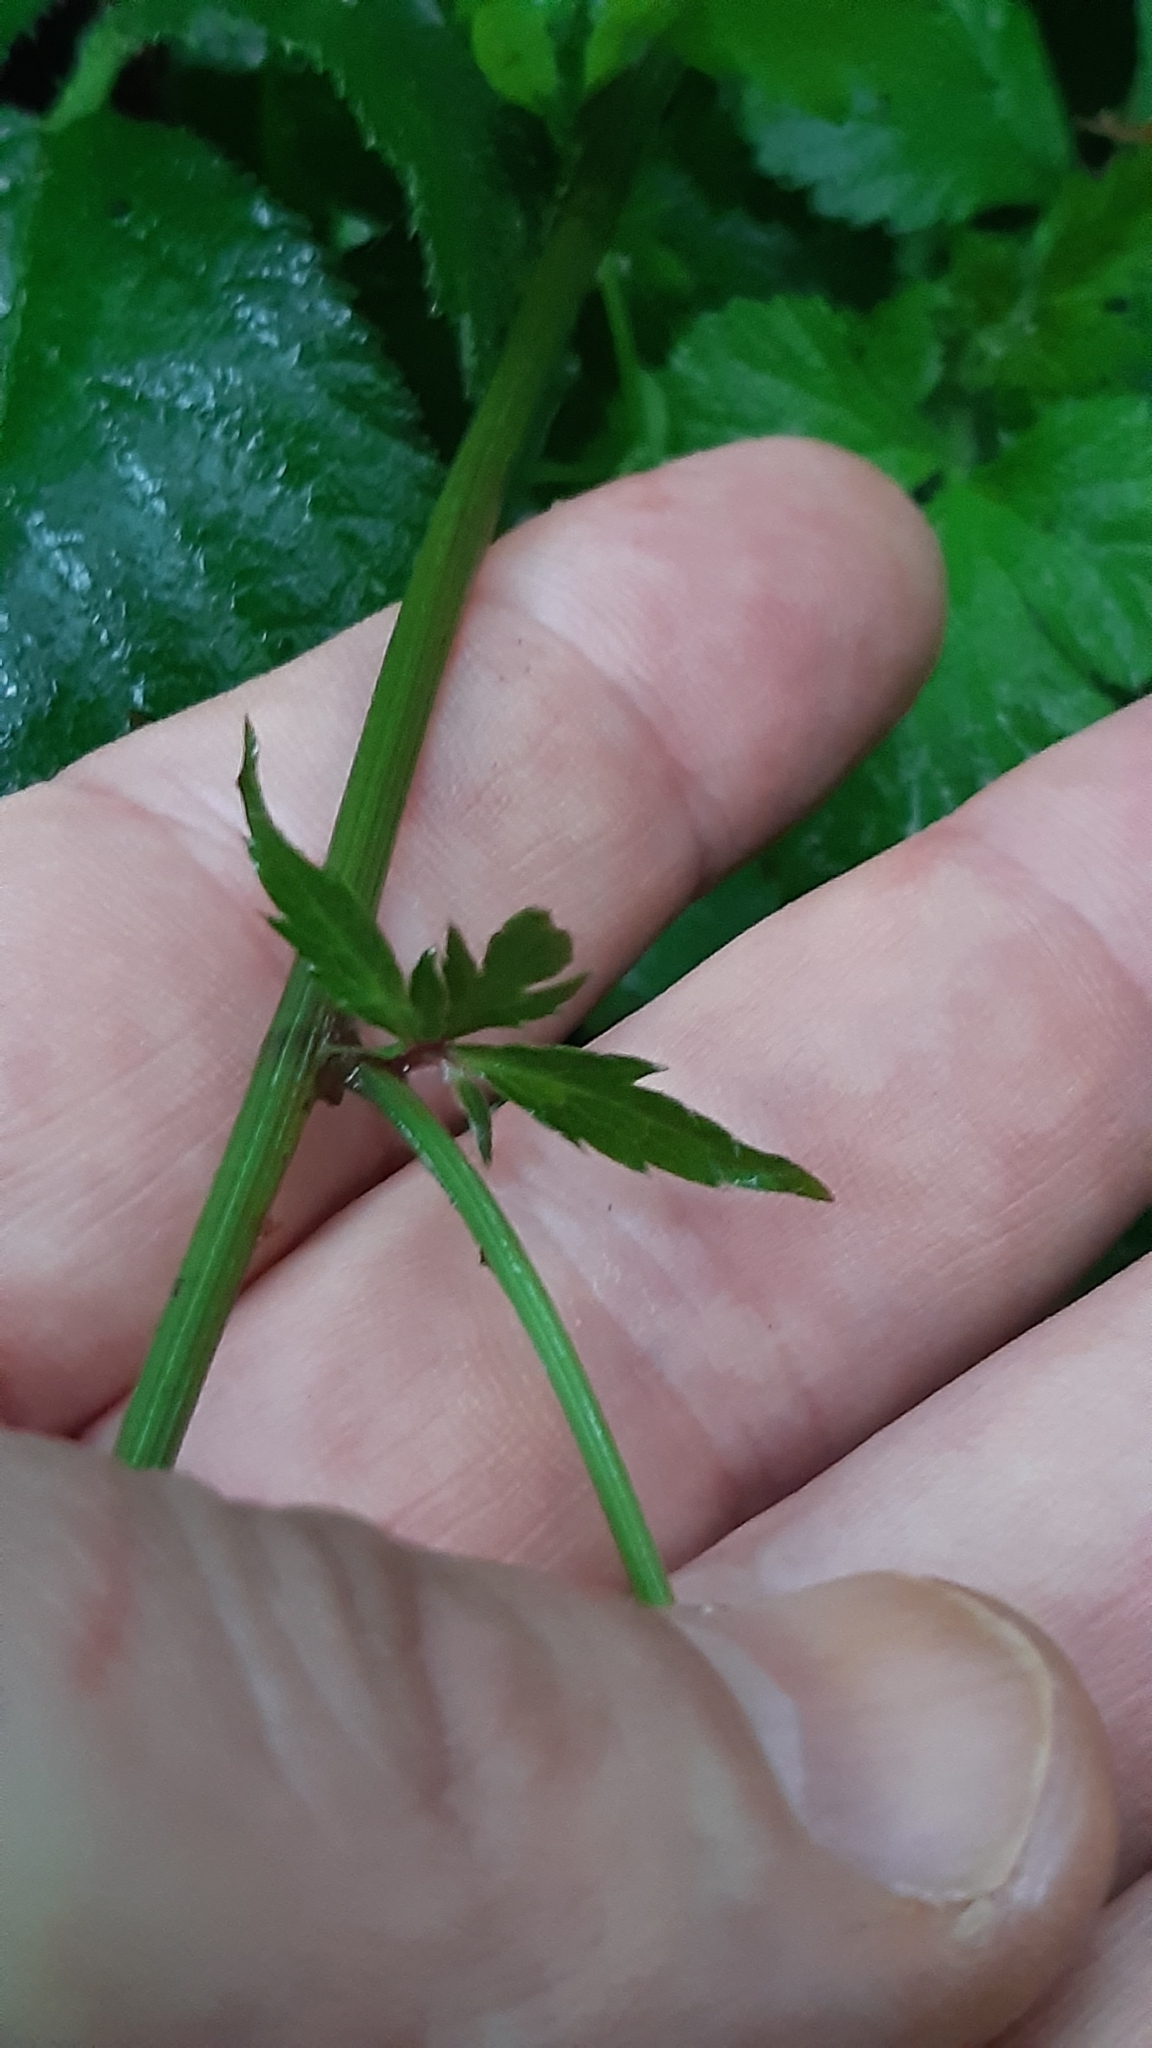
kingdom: Plantae
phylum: Tracheophyta
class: Magnoliopsida
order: Apiales
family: Apiaceae
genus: Sanicula
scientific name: Sanicula europaea
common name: Sanicle
